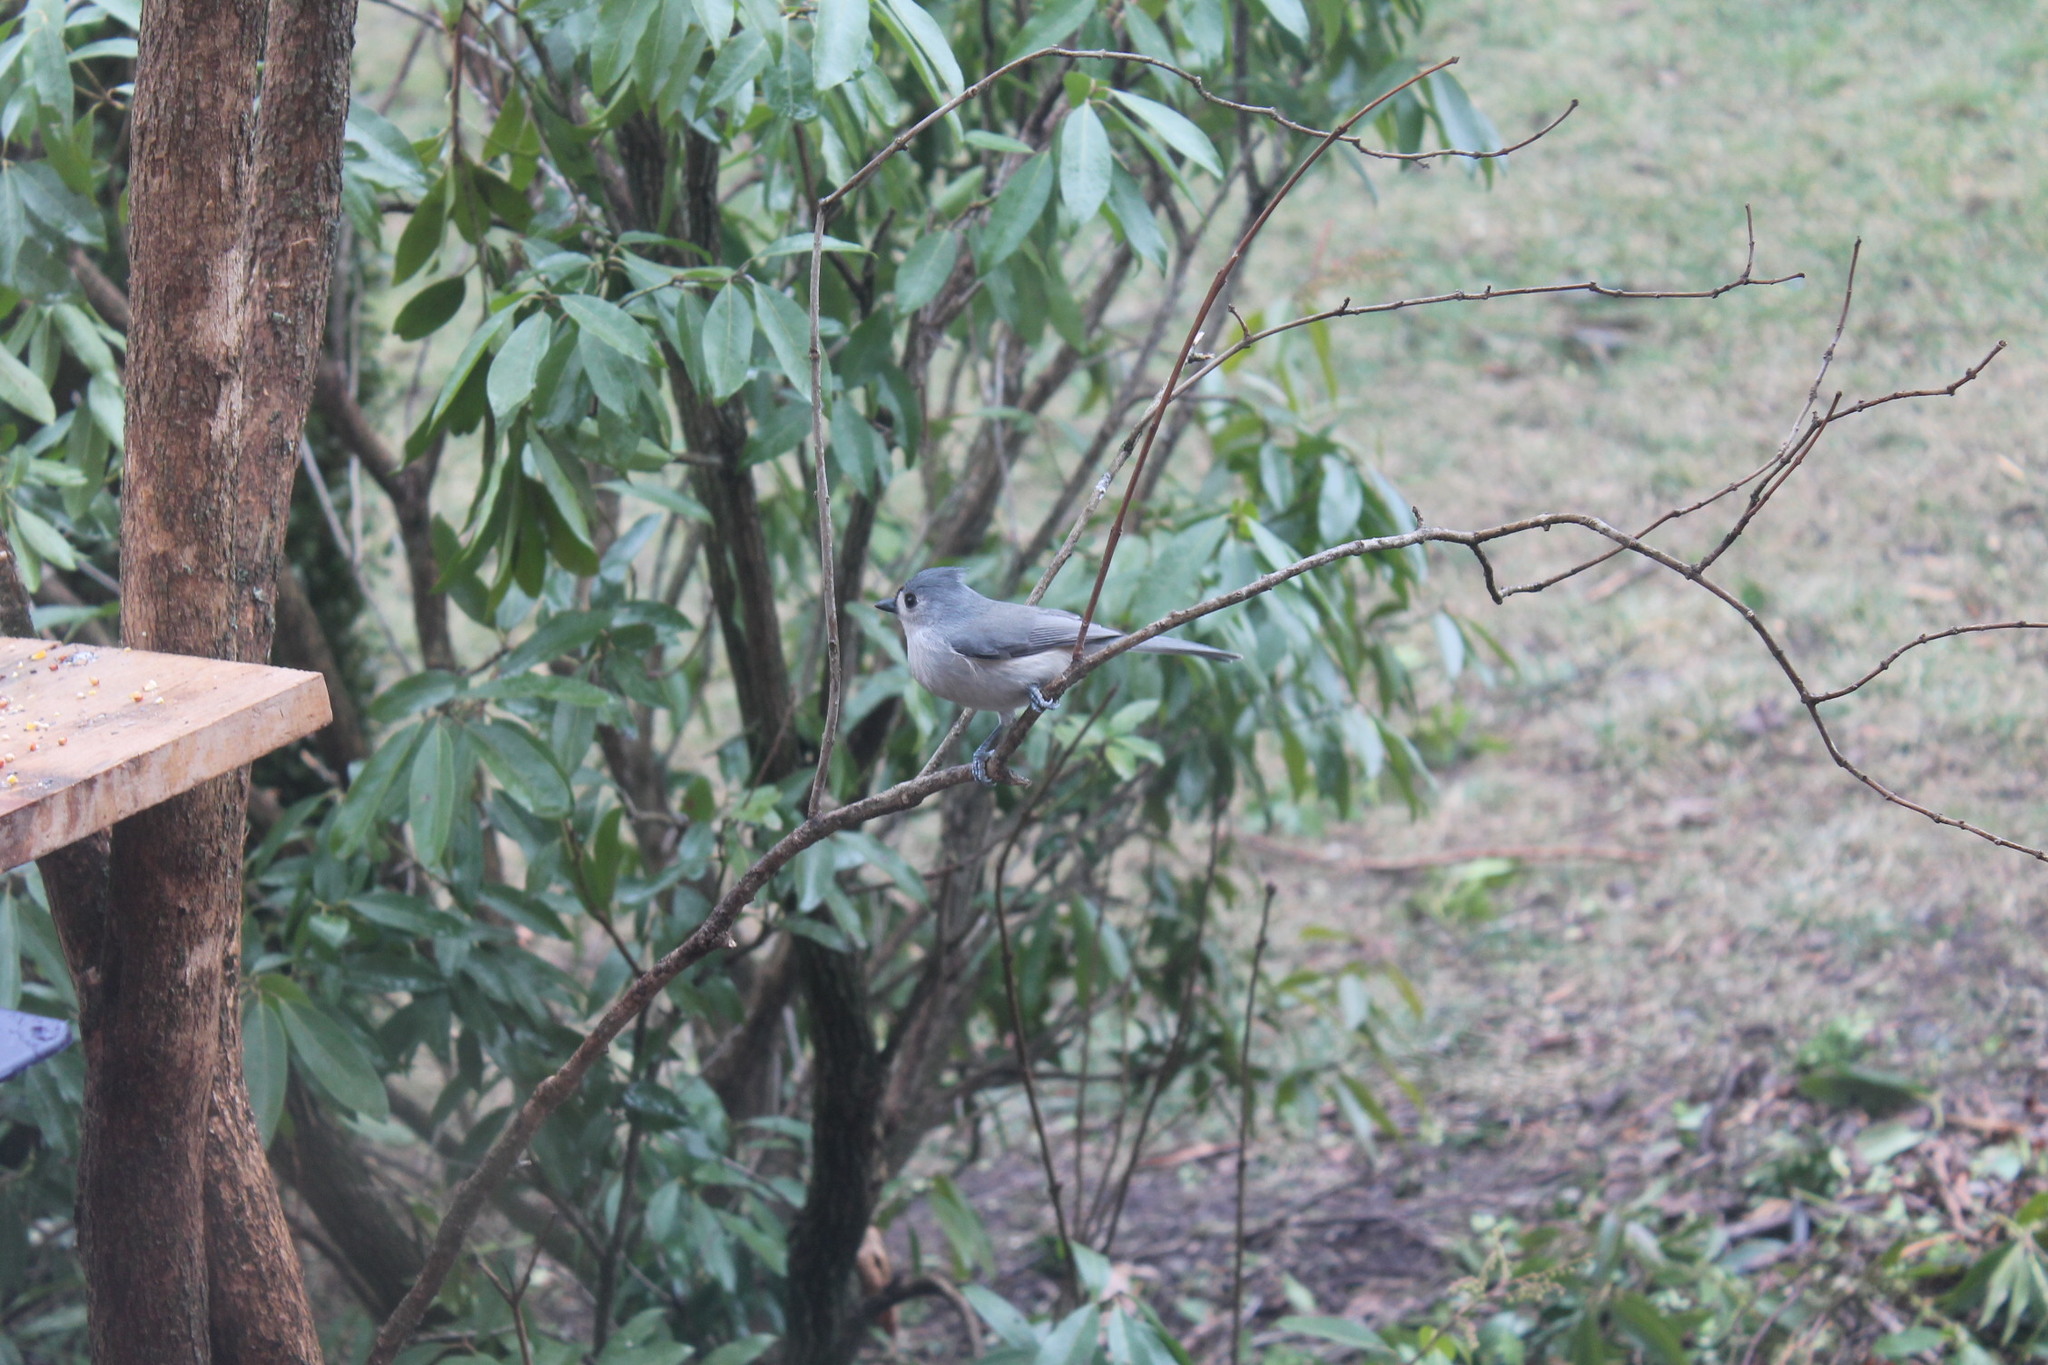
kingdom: Animalia
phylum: Chordata
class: Aves
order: Passeriformes
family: Paridae
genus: Baeolophus
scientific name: Baeolophus bicolor
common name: Tufted titmouse
